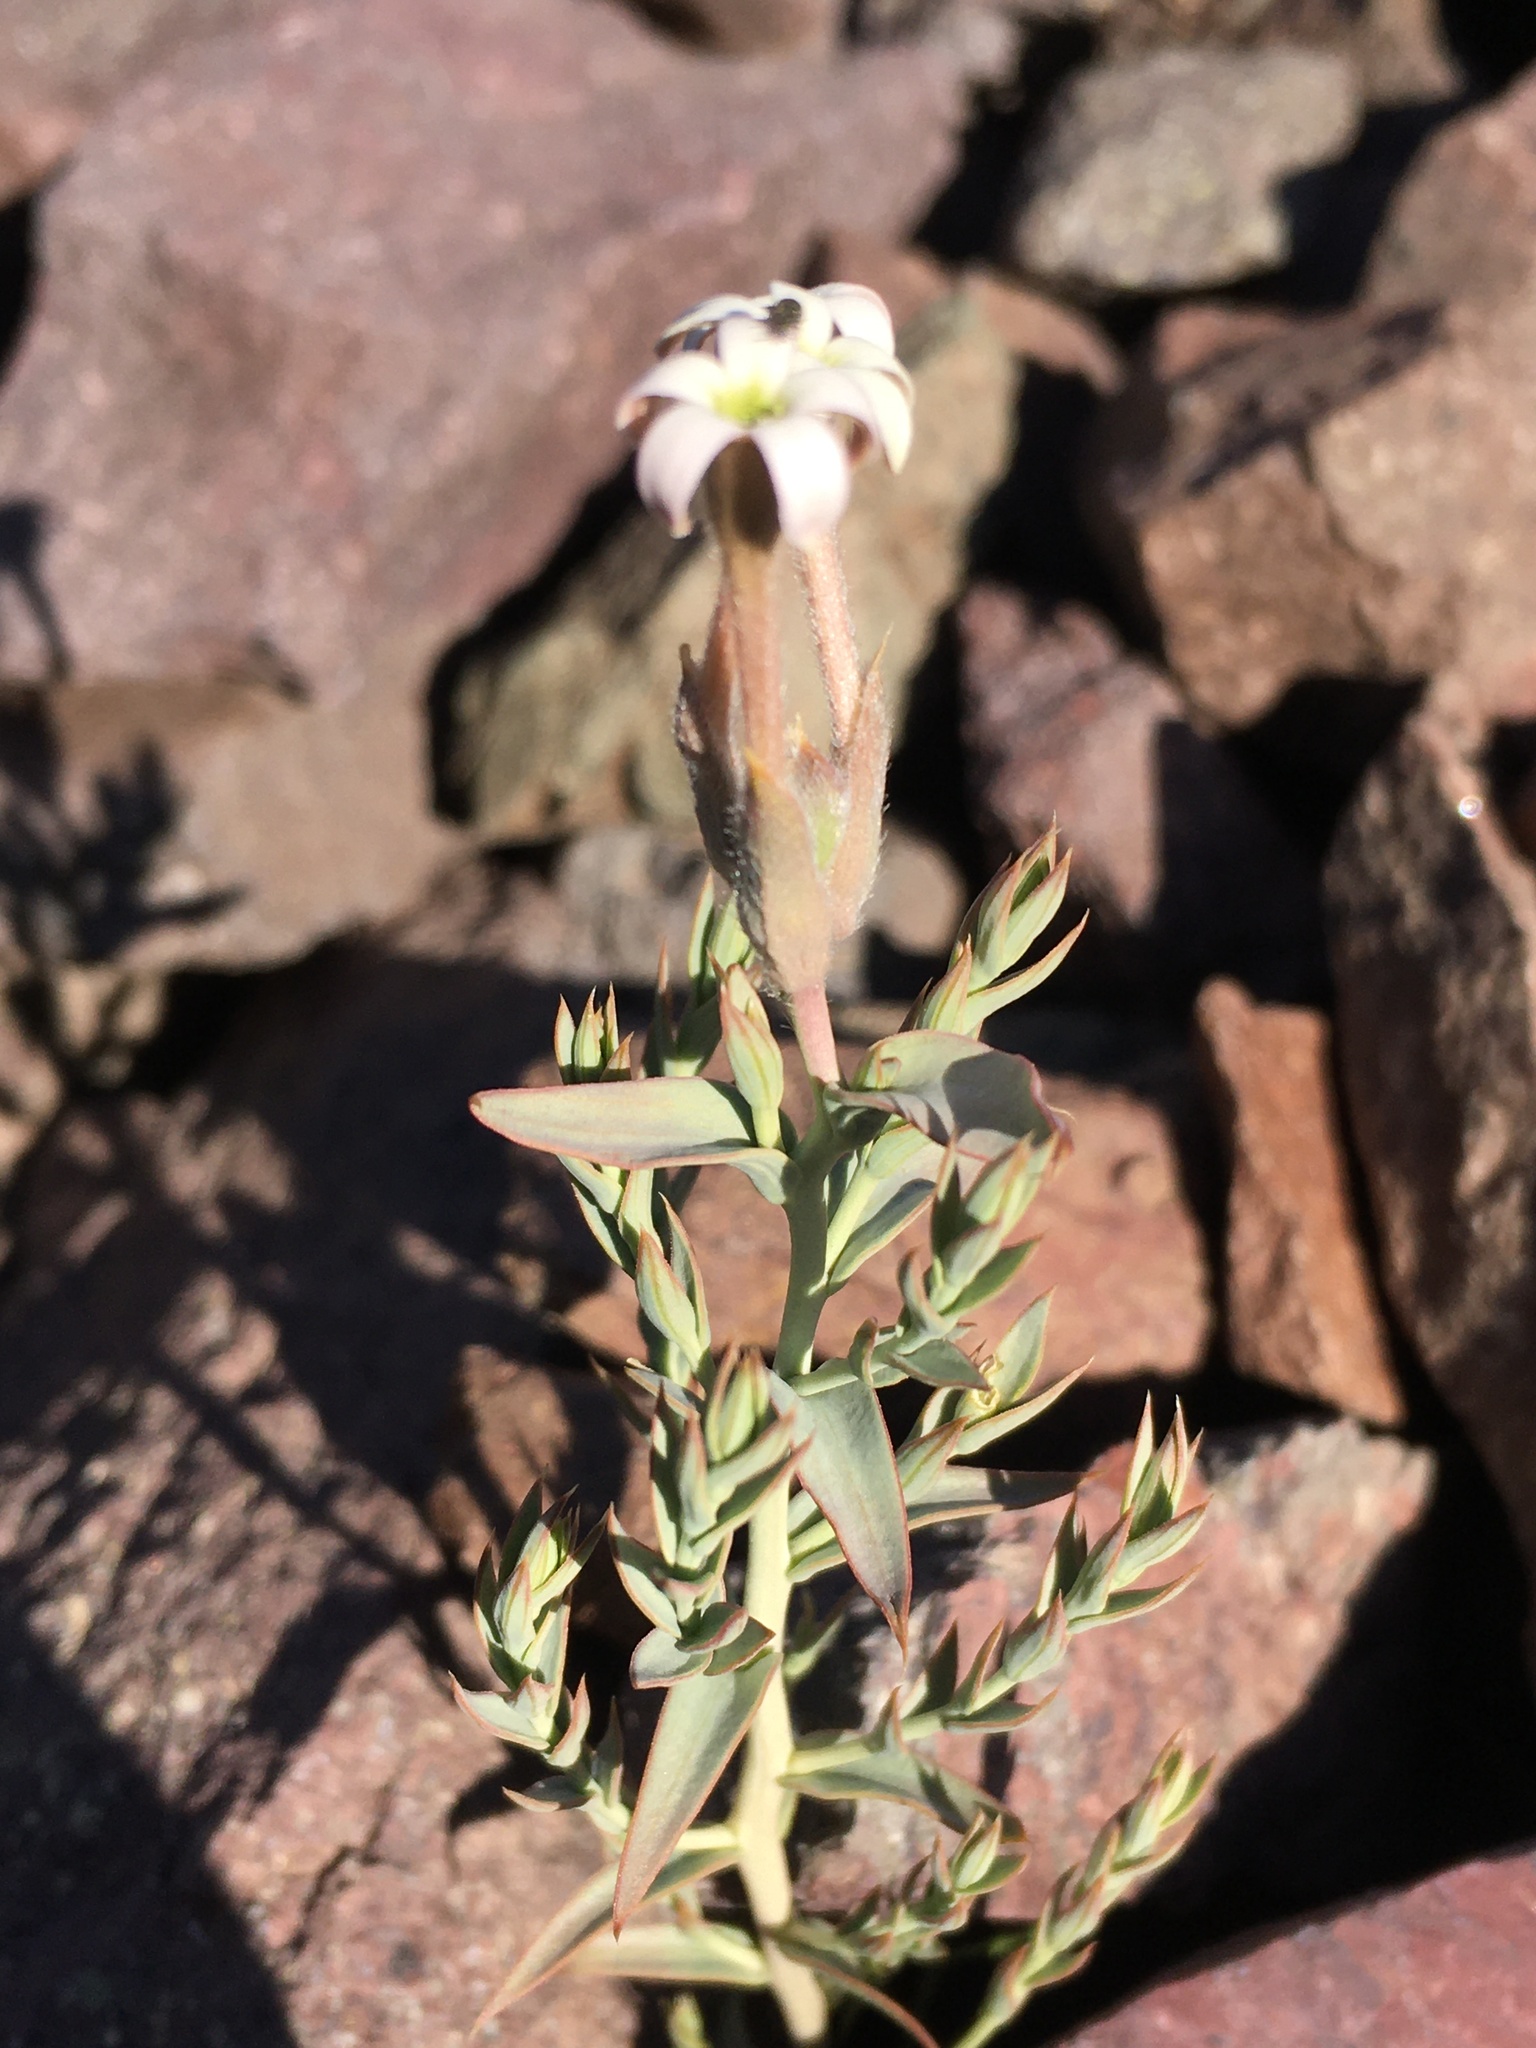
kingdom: Plantae
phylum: Tracheophyta
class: Magnoliopsida
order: Santalales
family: Schoepfiaceae
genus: Arjona
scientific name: Arjona patagonica
